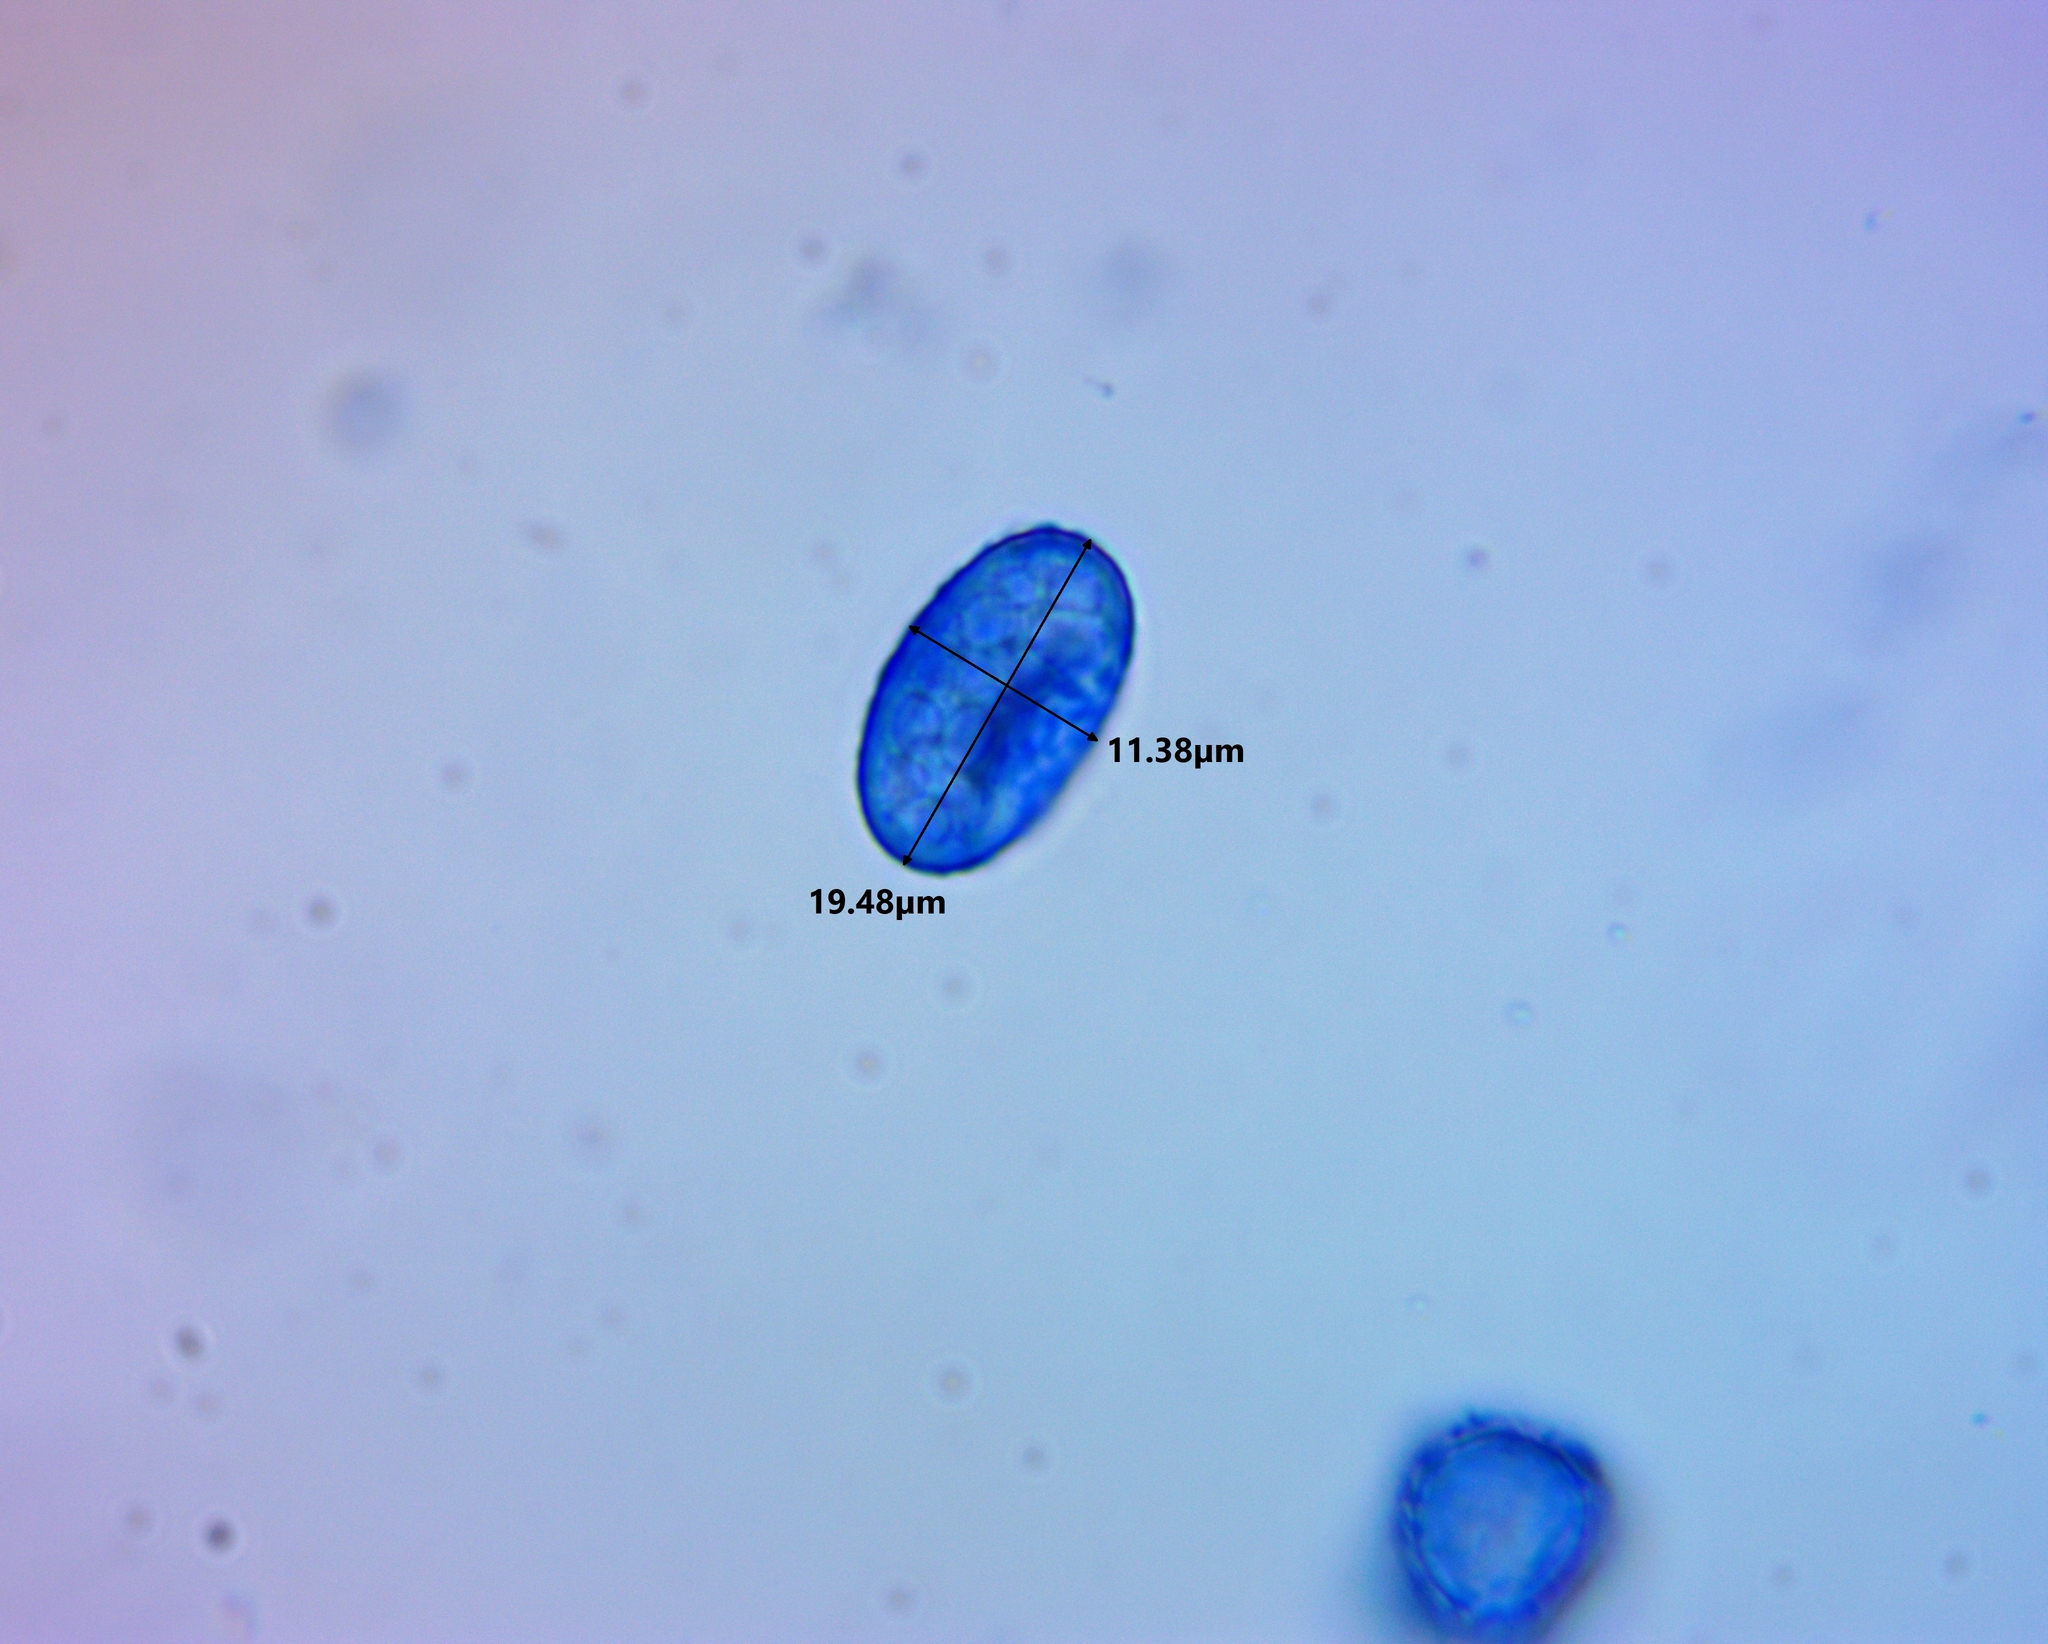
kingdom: Fungi
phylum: Ascomycota
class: Pezizomycetes
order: Pezizales
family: Pyronemataceae
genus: Scutellinia
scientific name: Scutellinia crinita
